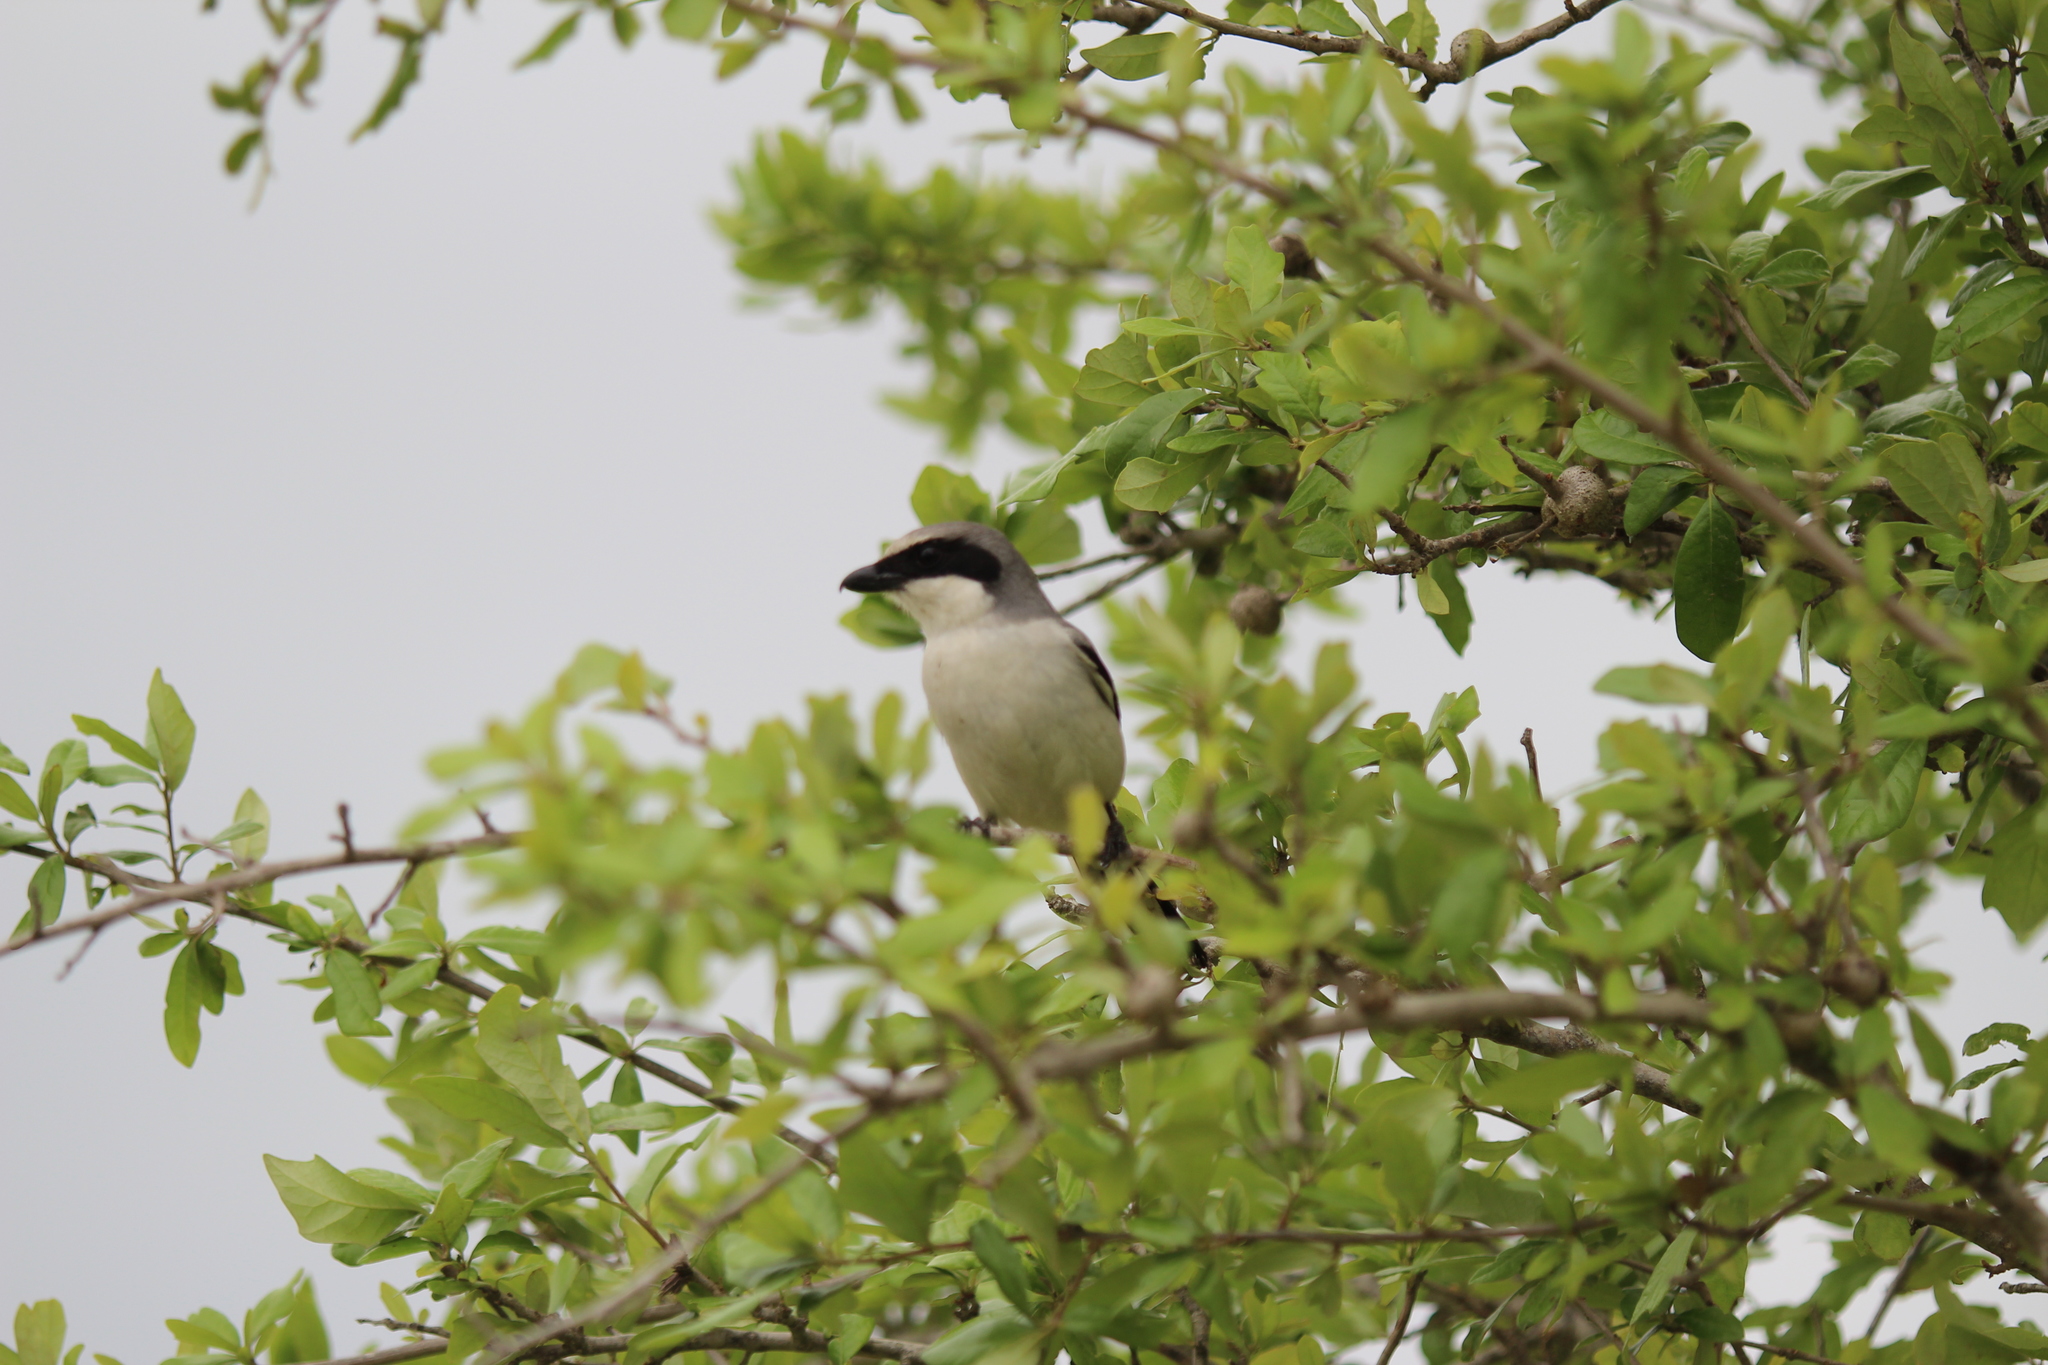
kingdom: Animalia
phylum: Chordata
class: Aves
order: Passeriformes
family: Laniidae
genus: Lanius
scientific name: Lanius ludovicianus
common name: Loggerhead shrike
